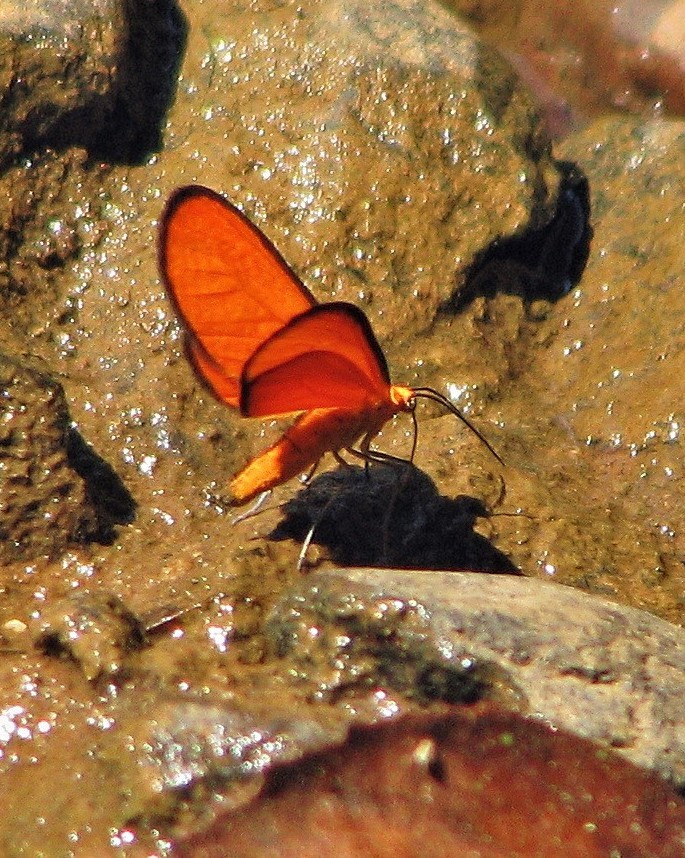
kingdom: Animalia
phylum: Arthropoda
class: Insecta
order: Lepidoptera
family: Geometridae
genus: Eudulophasia
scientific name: Eudulophasia invaria
